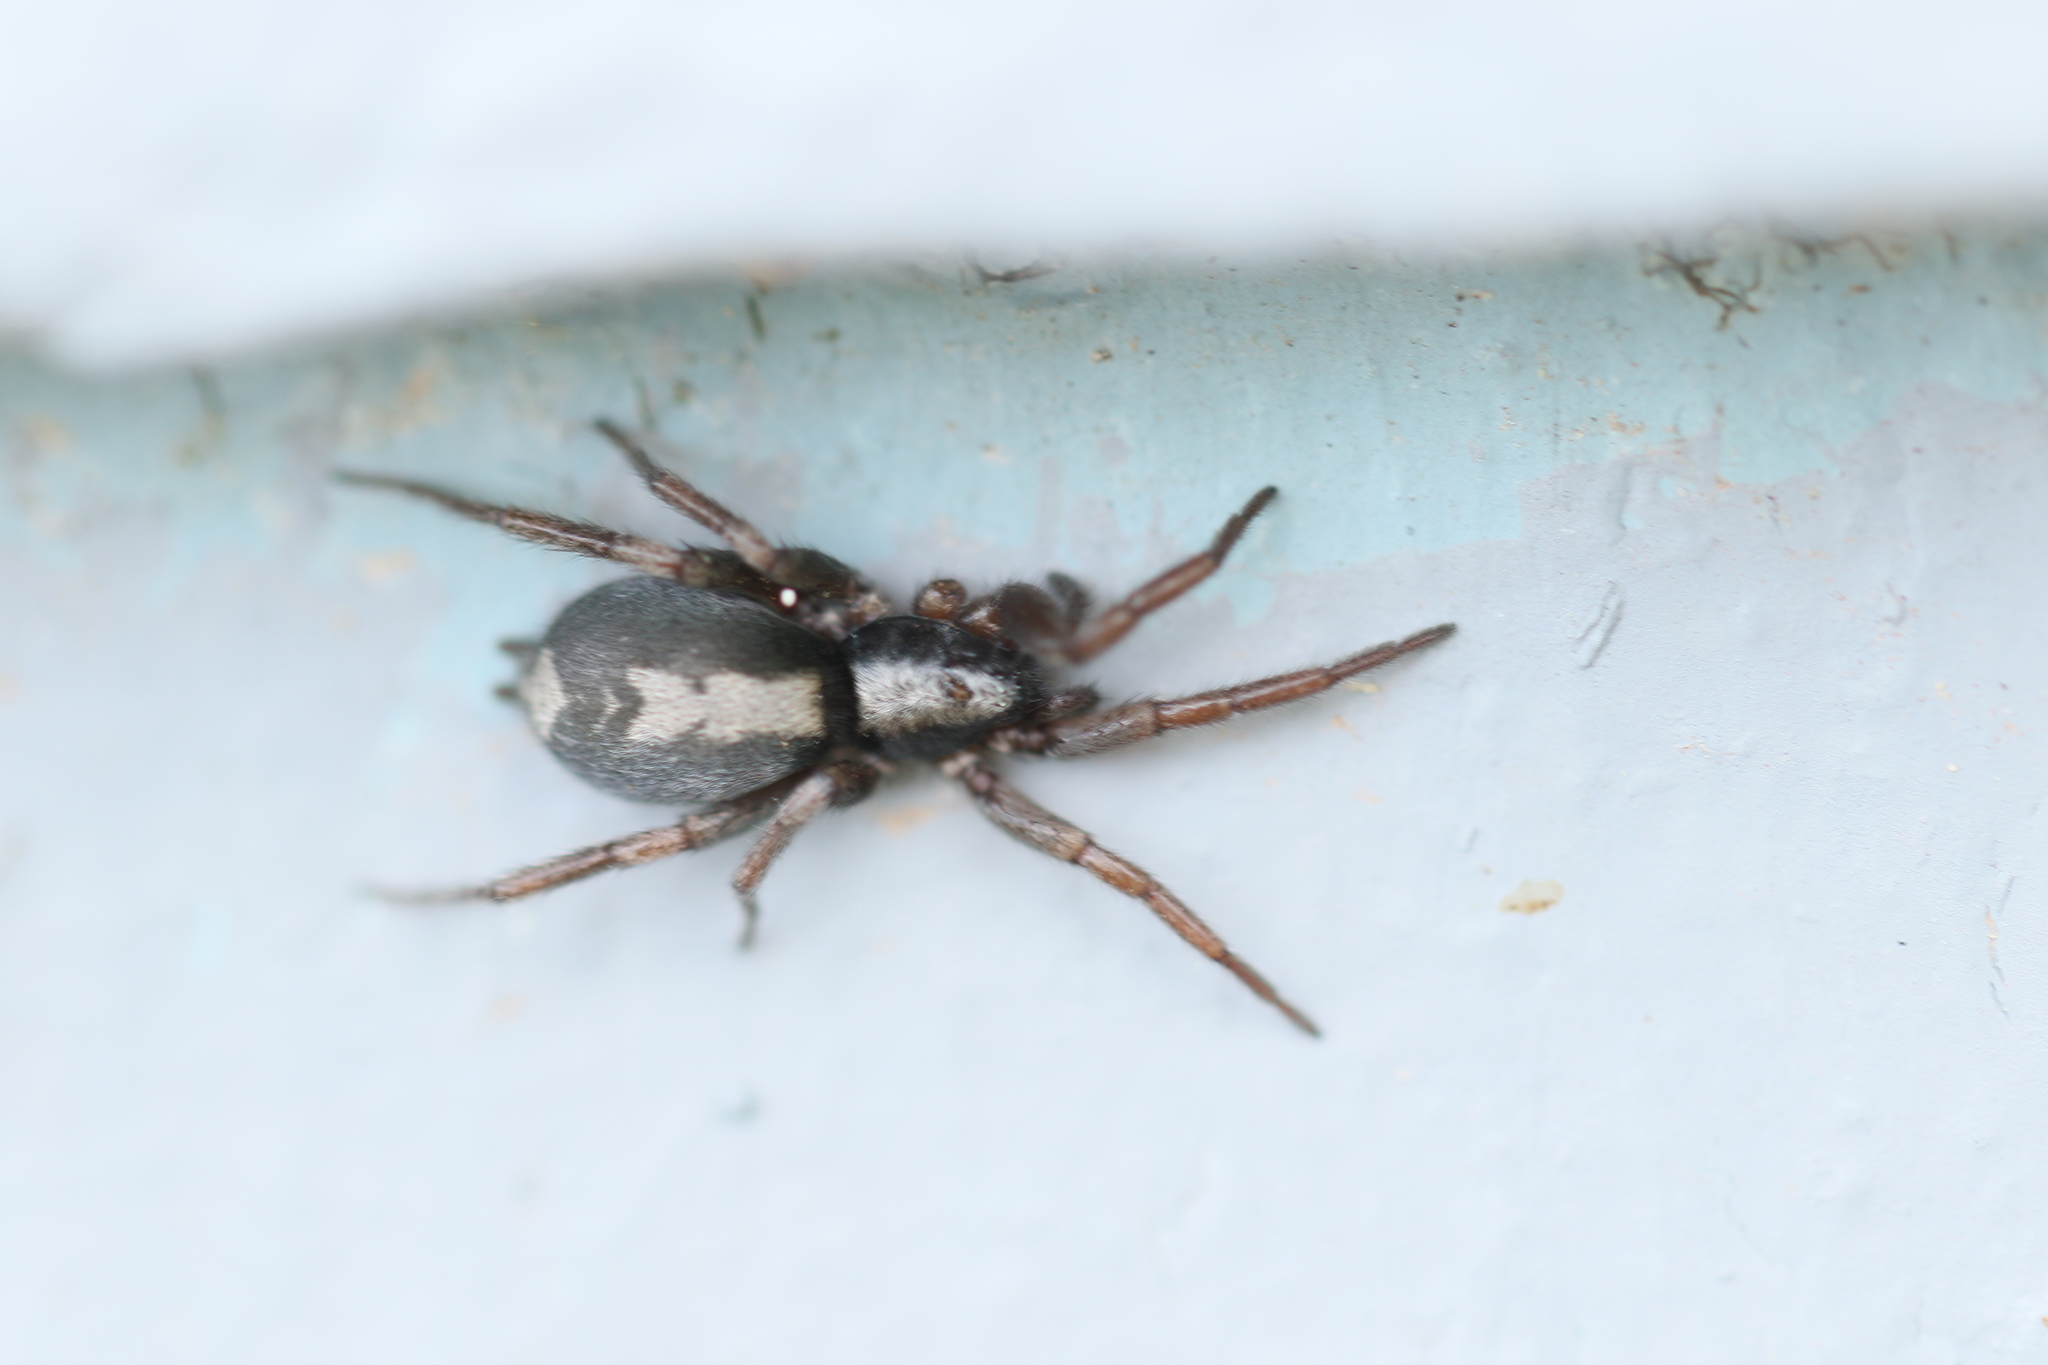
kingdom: Animalia
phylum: Arthropoda
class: Arachnida
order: Araneae
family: Gnaphosidae
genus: Herpyllus
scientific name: Herpyllus ecclesiasticus
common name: Eastern parson spider
